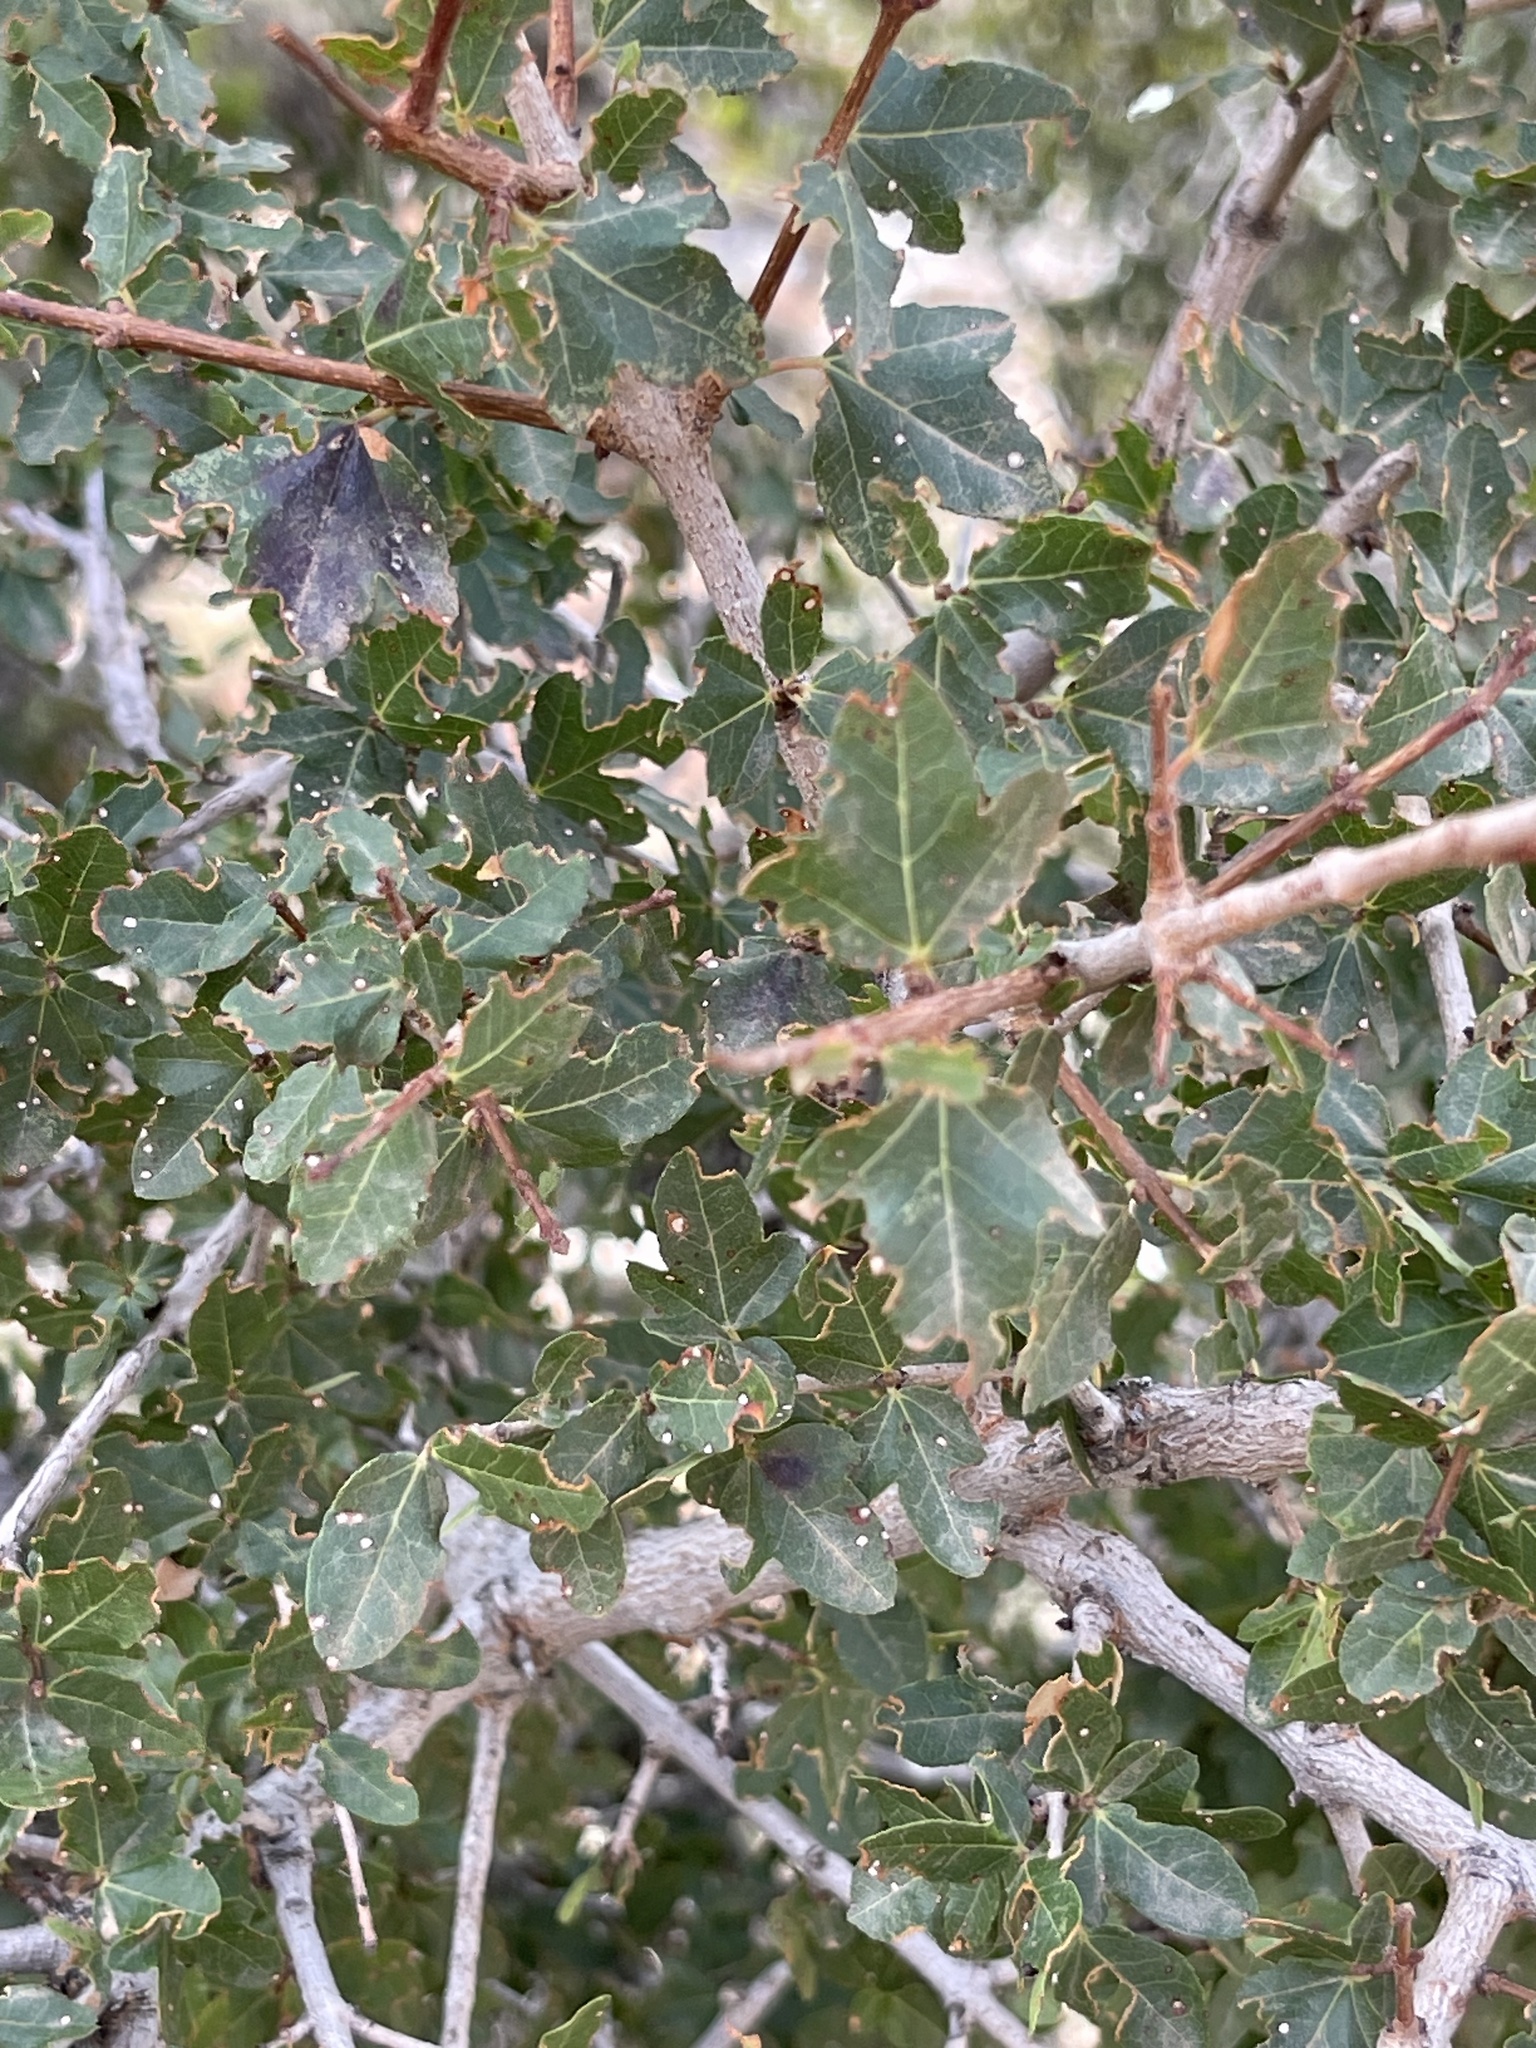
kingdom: Plantae
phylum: Tracheophyta
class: Magnoliopsida
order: Sapindales
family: Sapindaceae
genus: Acer
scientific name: Acer sempervirens
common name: Cretan maple
